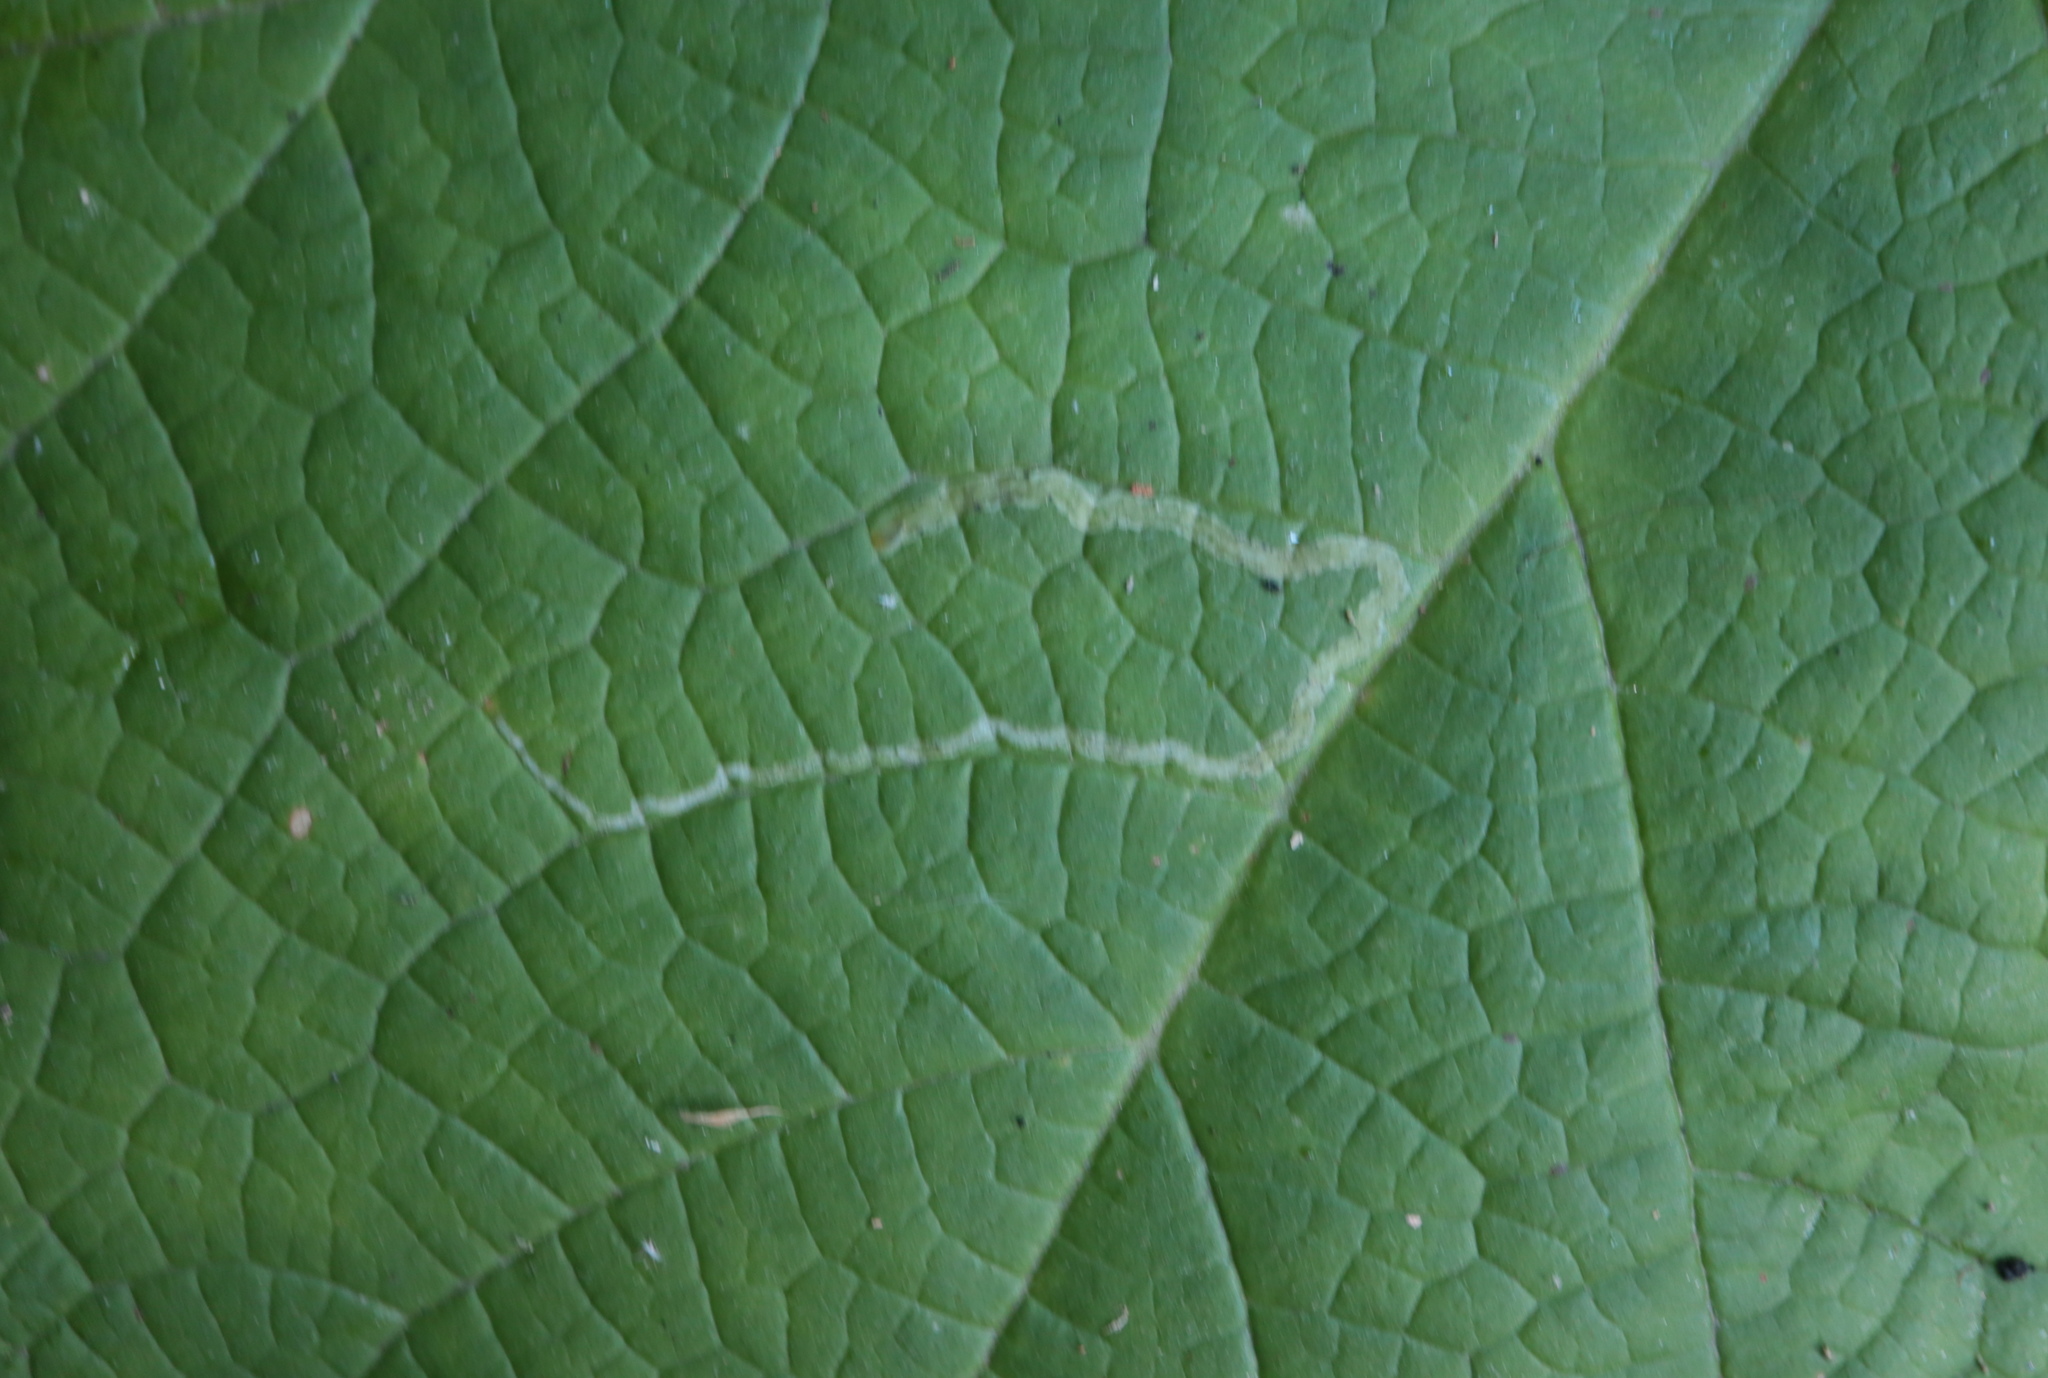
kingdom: Animalia
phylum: Arthropoda
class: Insecta
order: Diptera
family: Agromyzidae
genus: Agromyza
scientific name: Agromyza vockerothi
